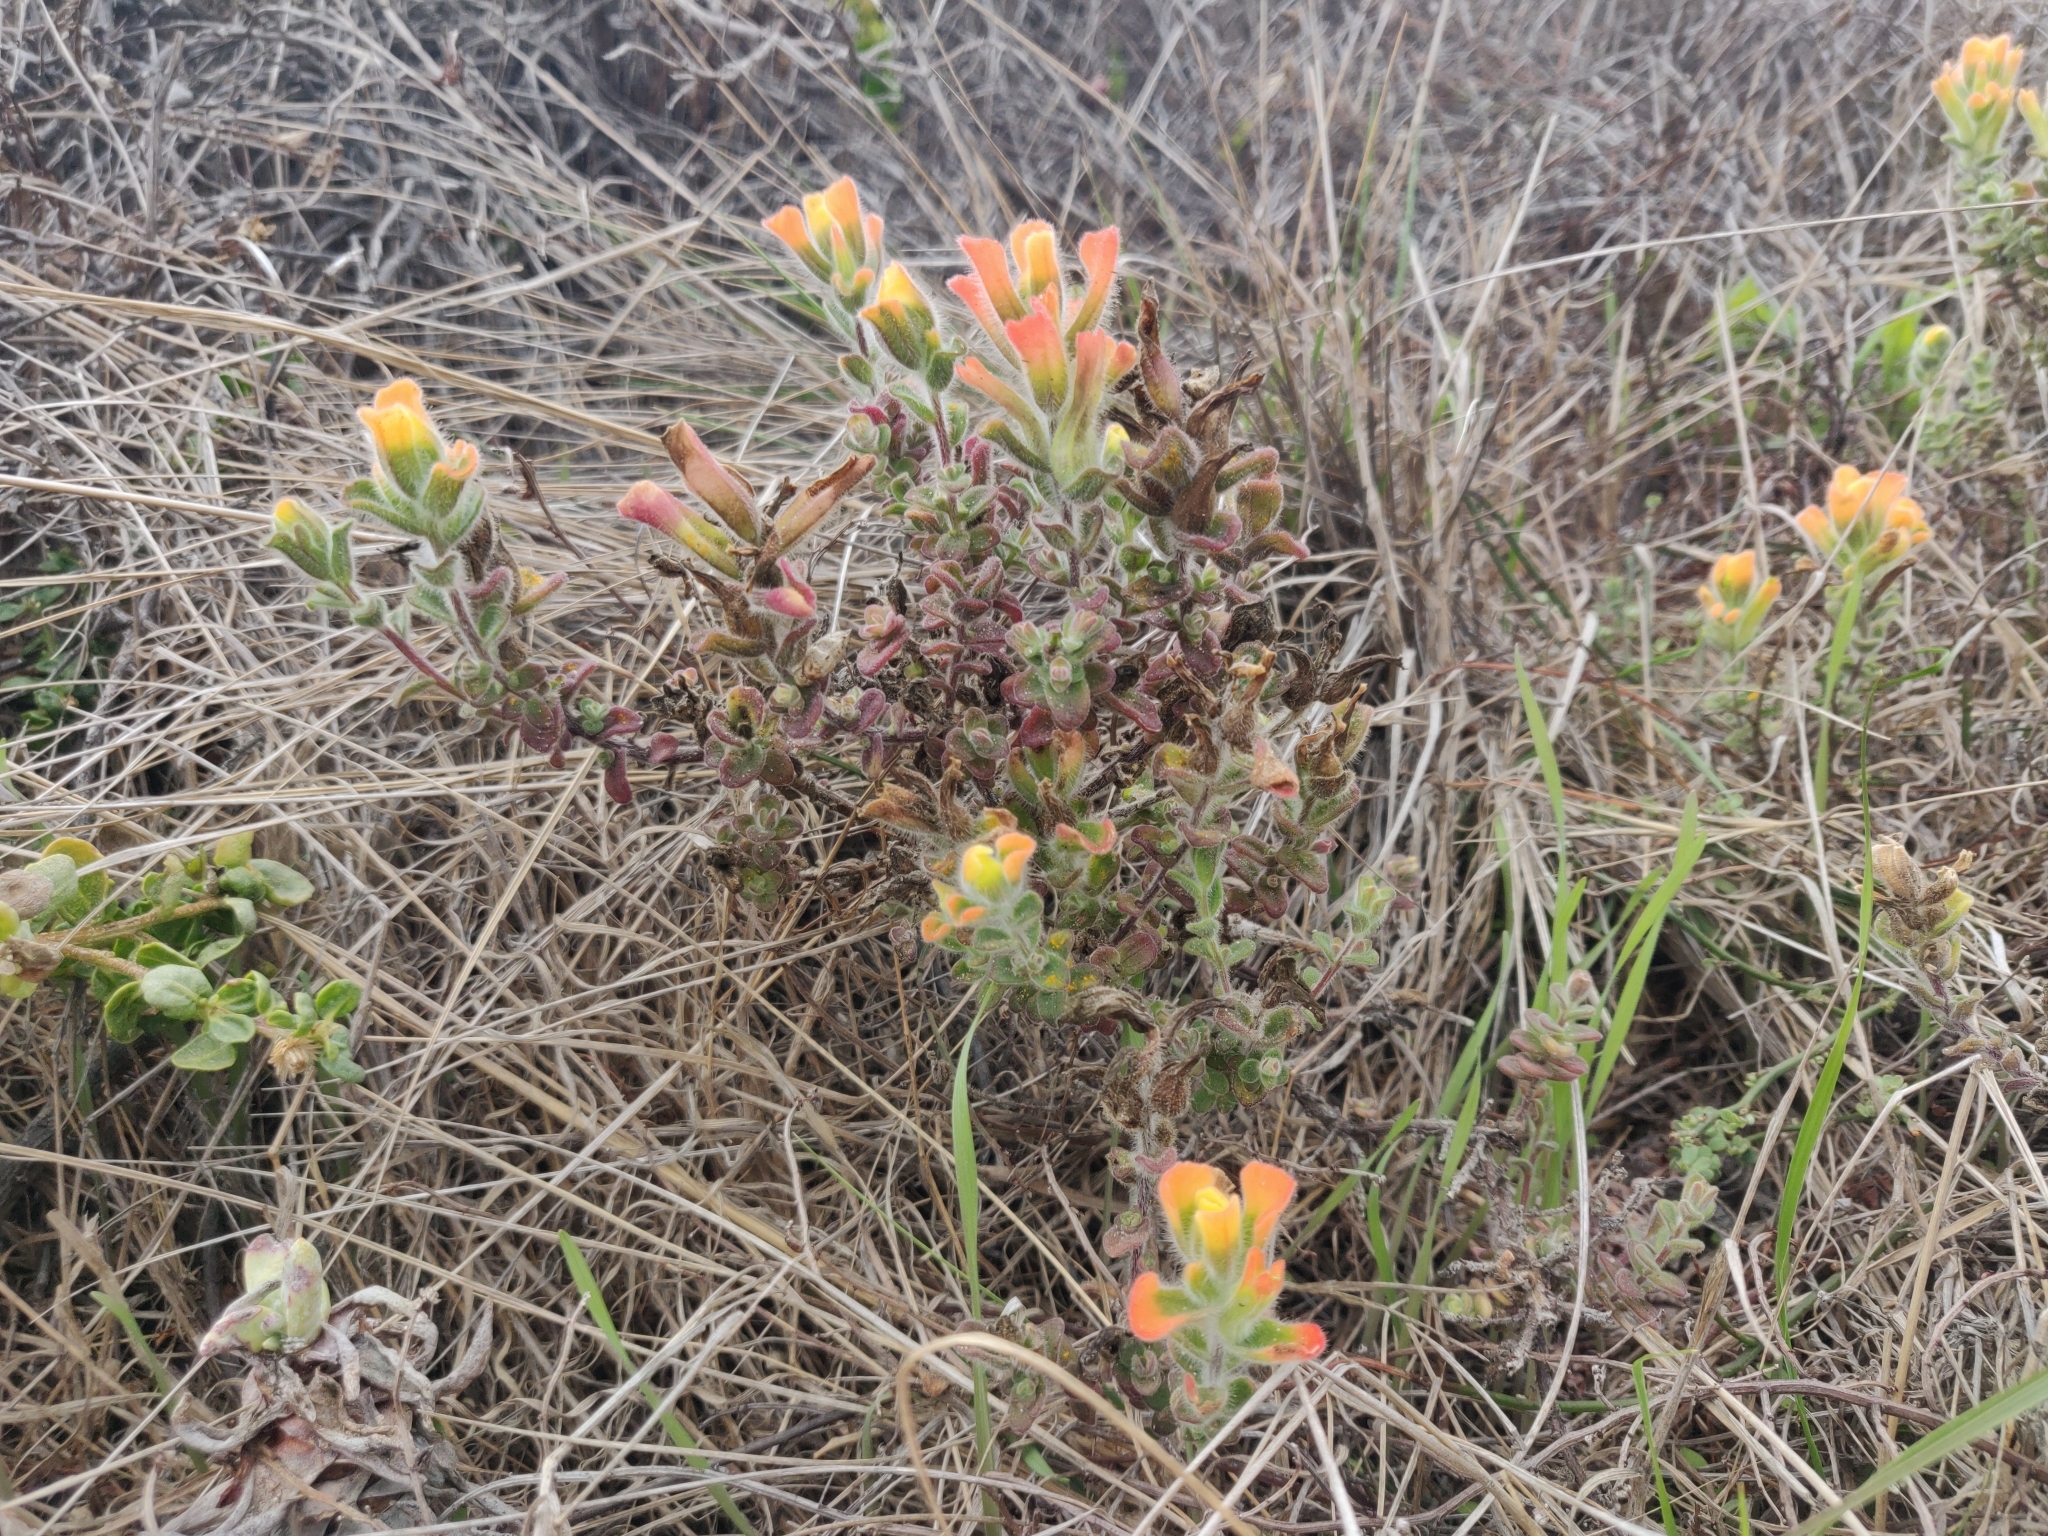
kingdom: Plantae
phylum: Tracheophyta
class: Magnoliopsida
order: Lamiales
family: Orobanchaceae
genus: Castilleja
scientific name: Castilleja latifolia
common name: Monterey indian paintbrush
